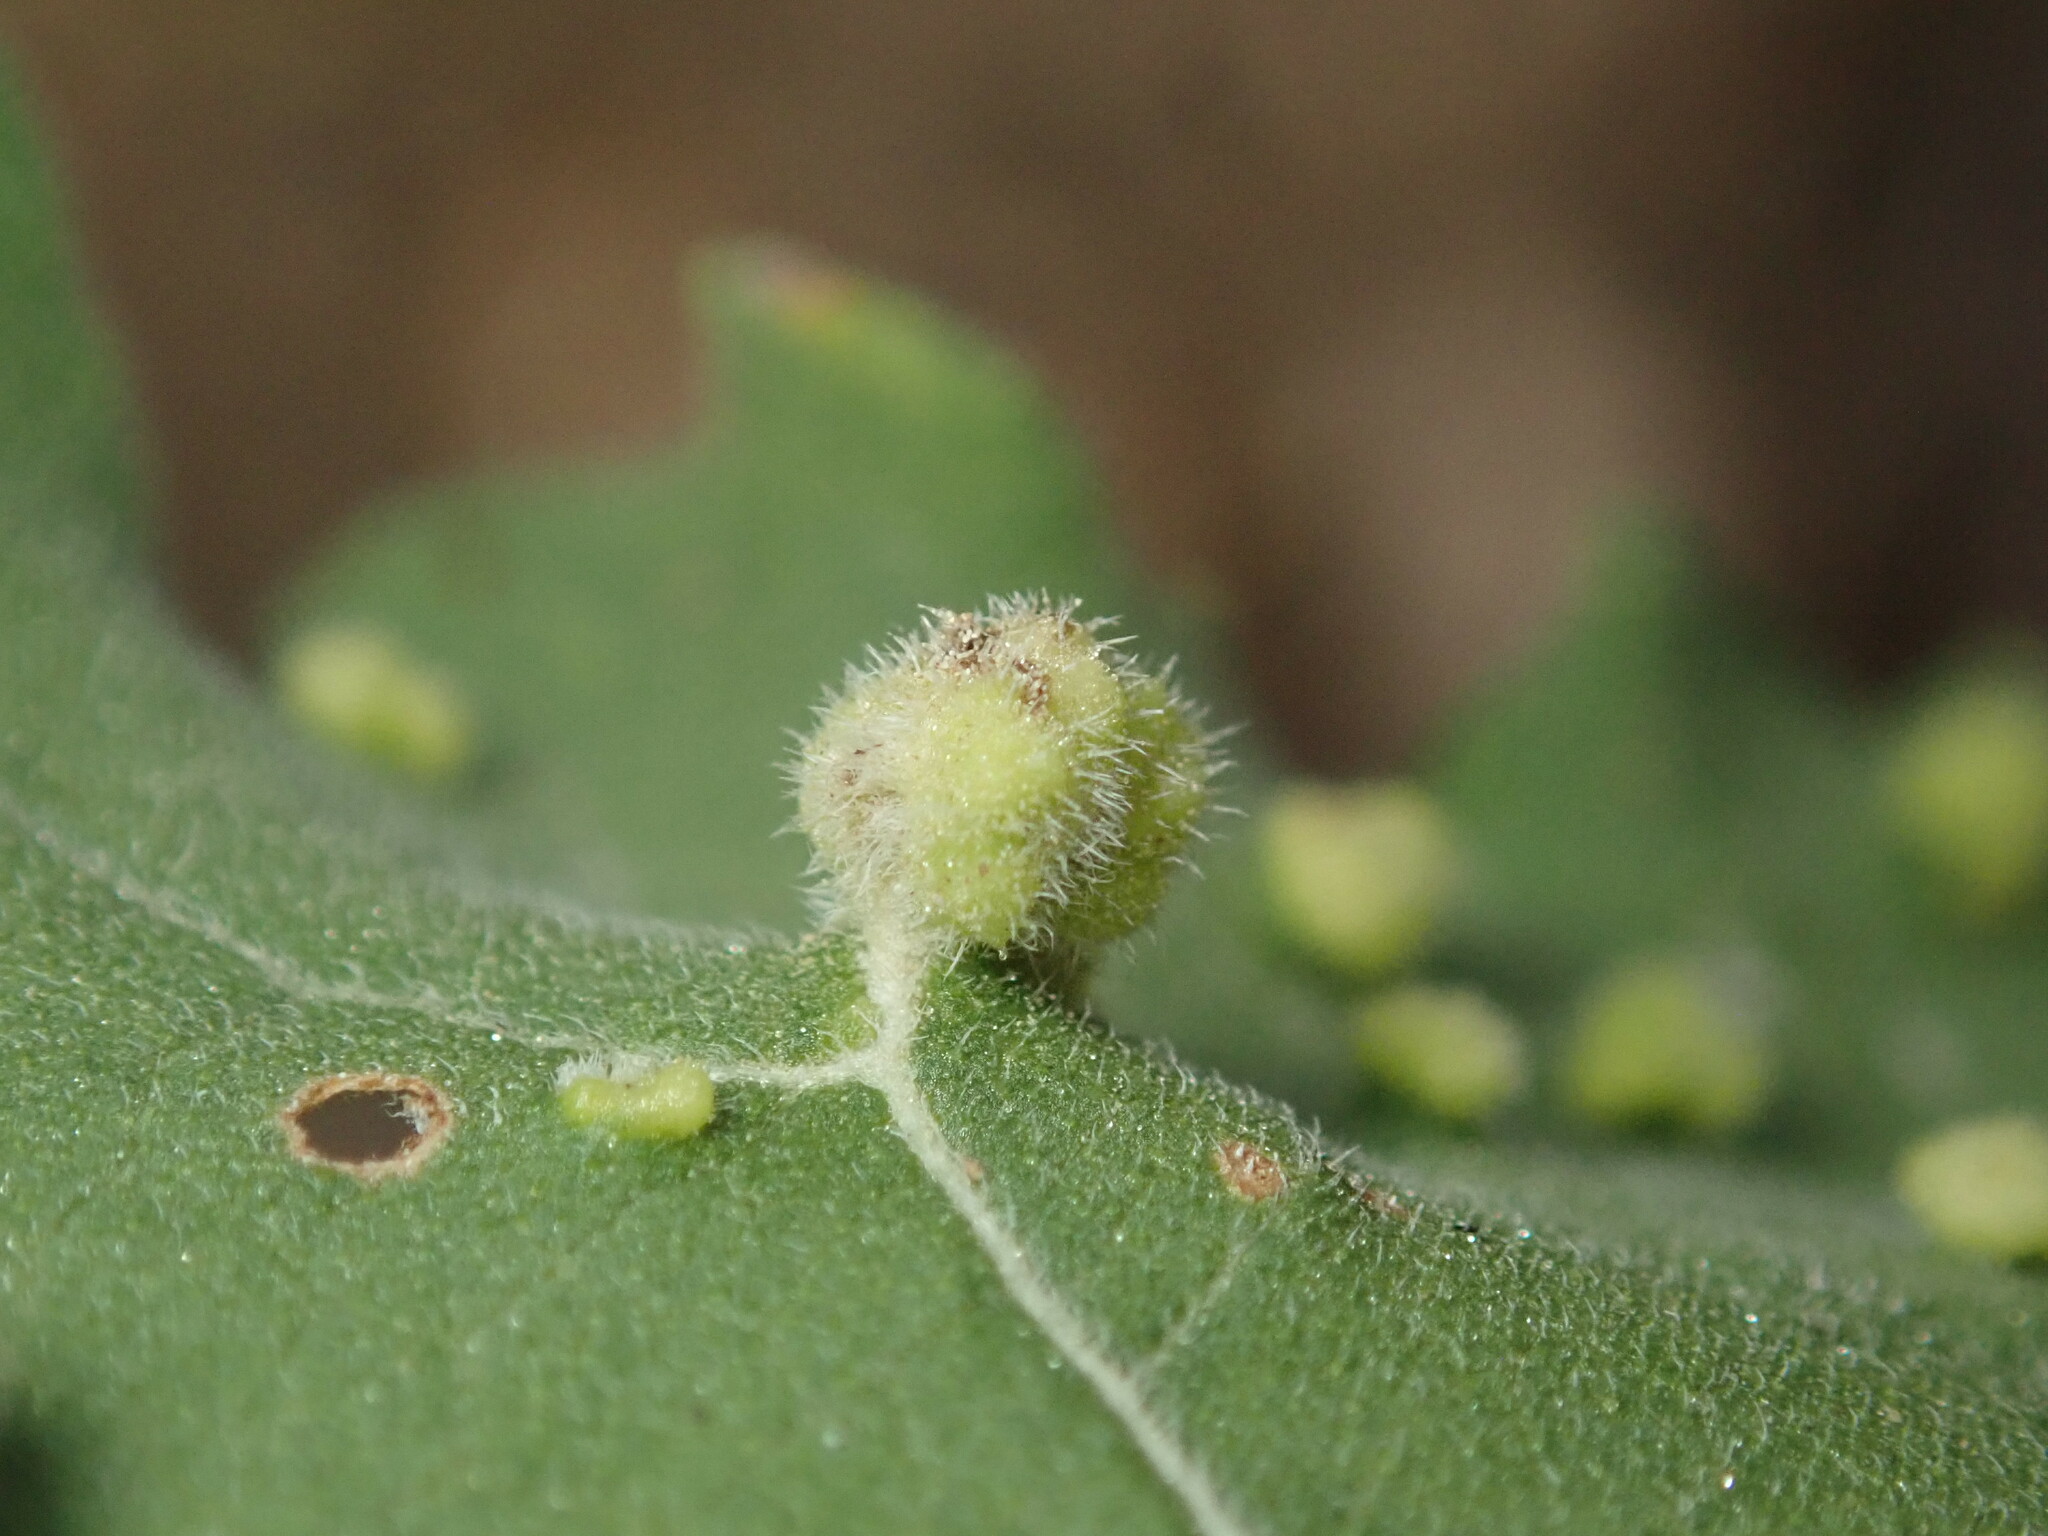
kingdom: Animalia
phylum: Arthropoda
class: Arachnida
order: Trombidiformes
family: Eriophyidae
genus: Aceria
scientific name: Aceria
